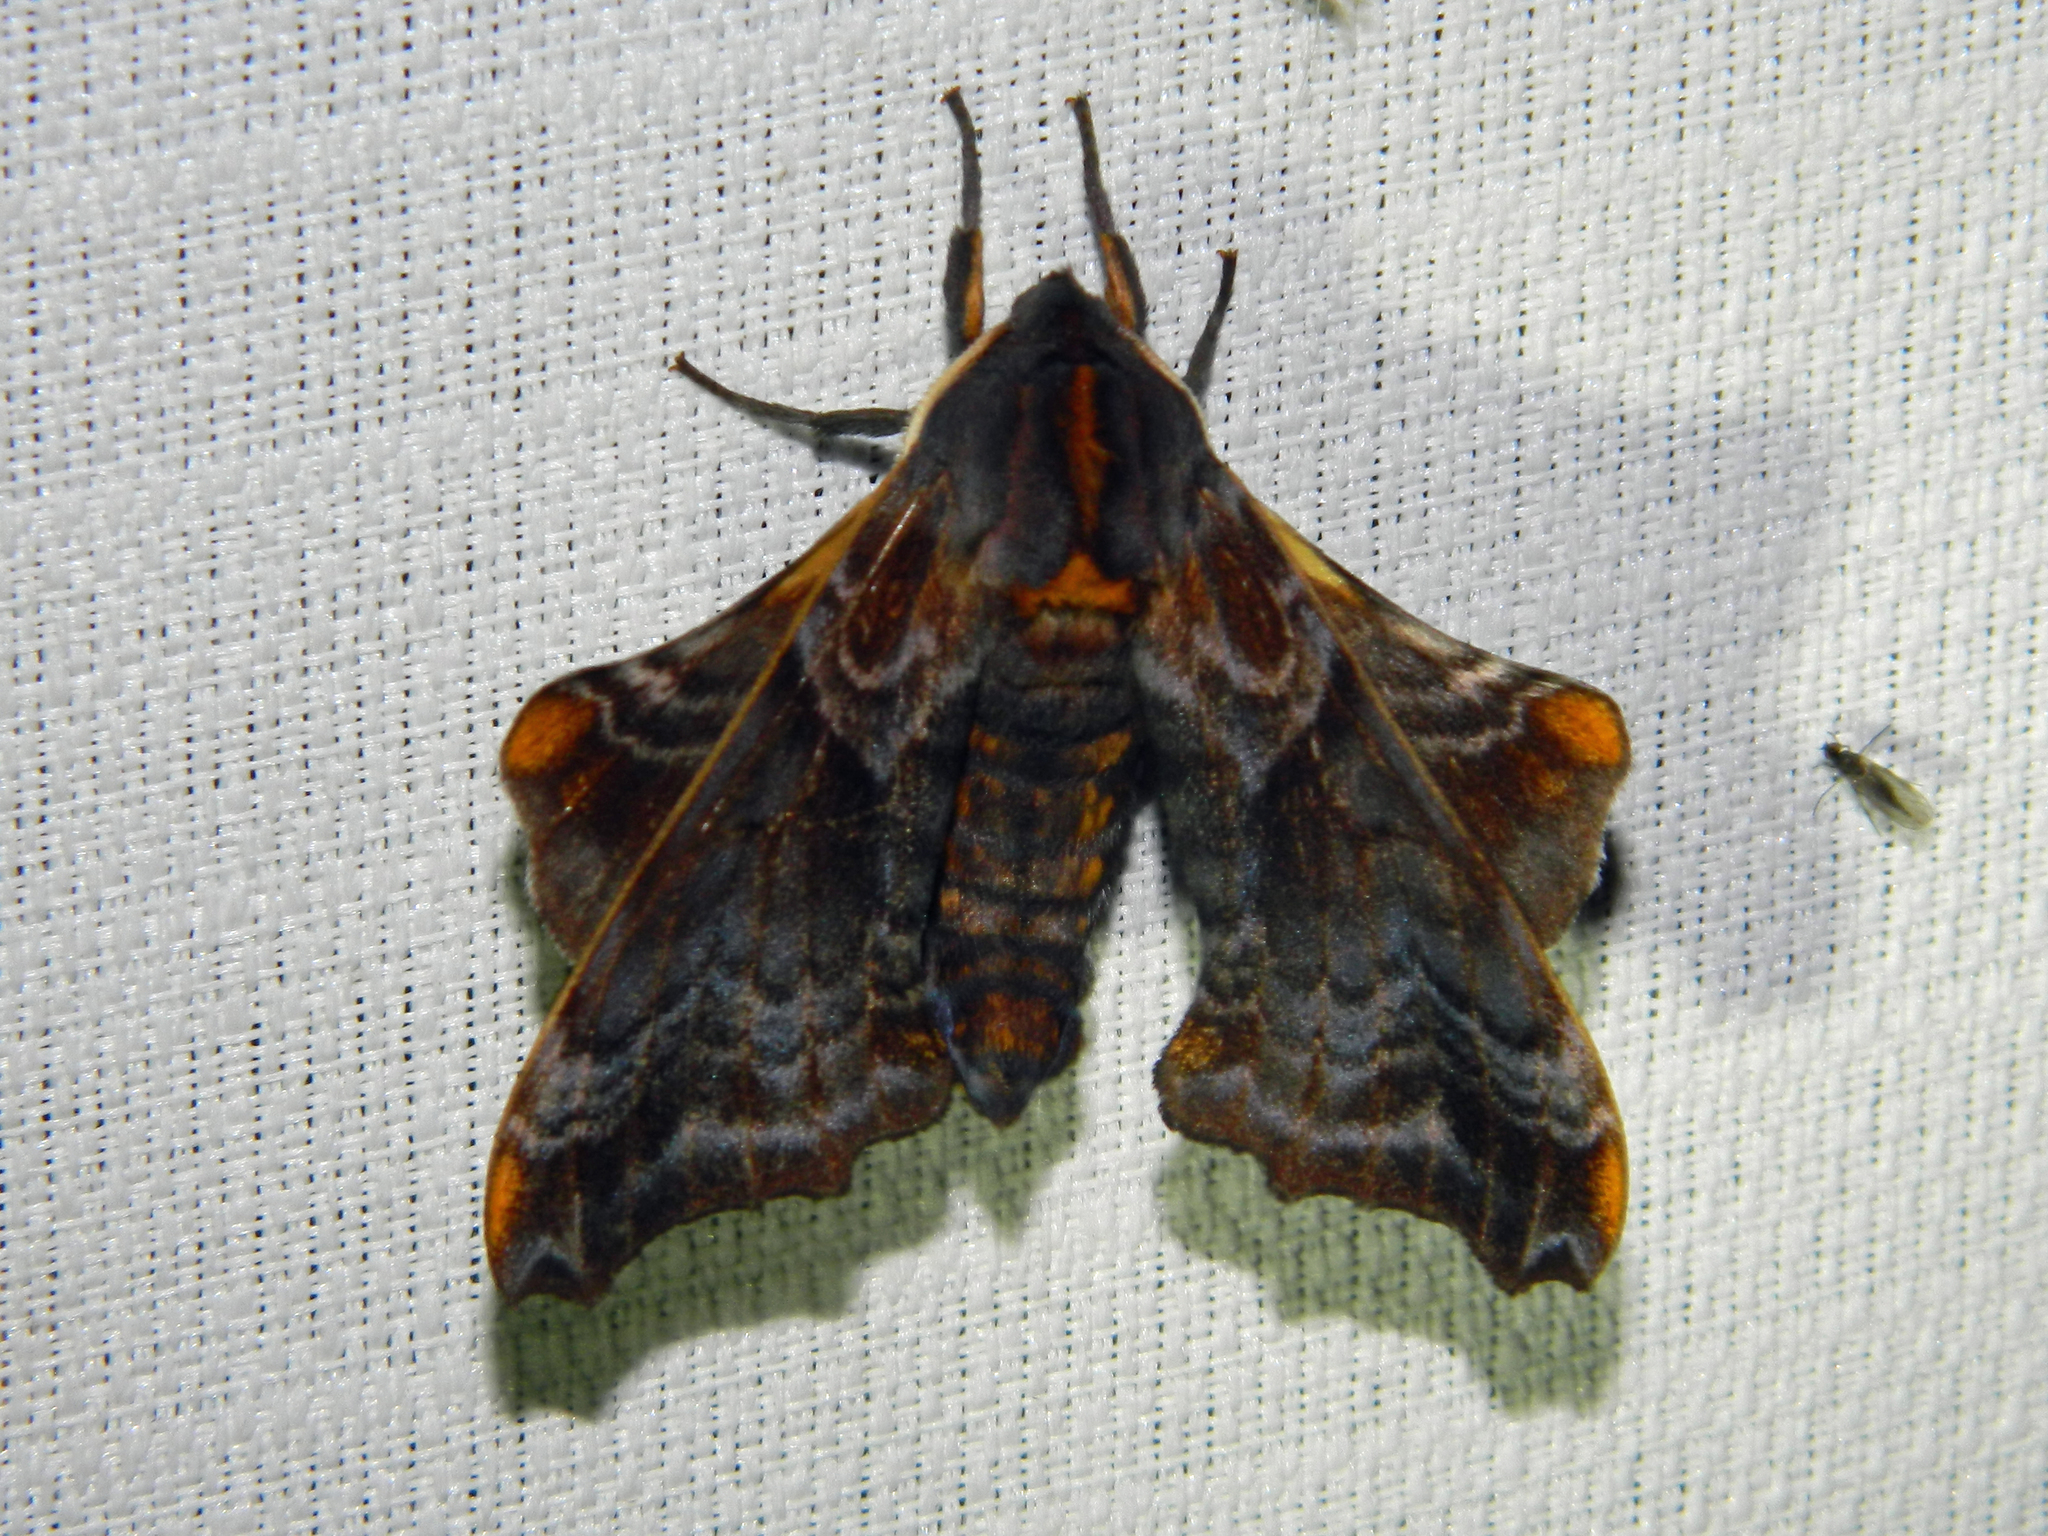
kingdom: Animalia
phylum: Arthropoda
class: Insecta
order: Lepidoptera
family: Sphingidae
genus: Paonias
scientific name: Paonias myops
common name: Small-eyed sphinx
